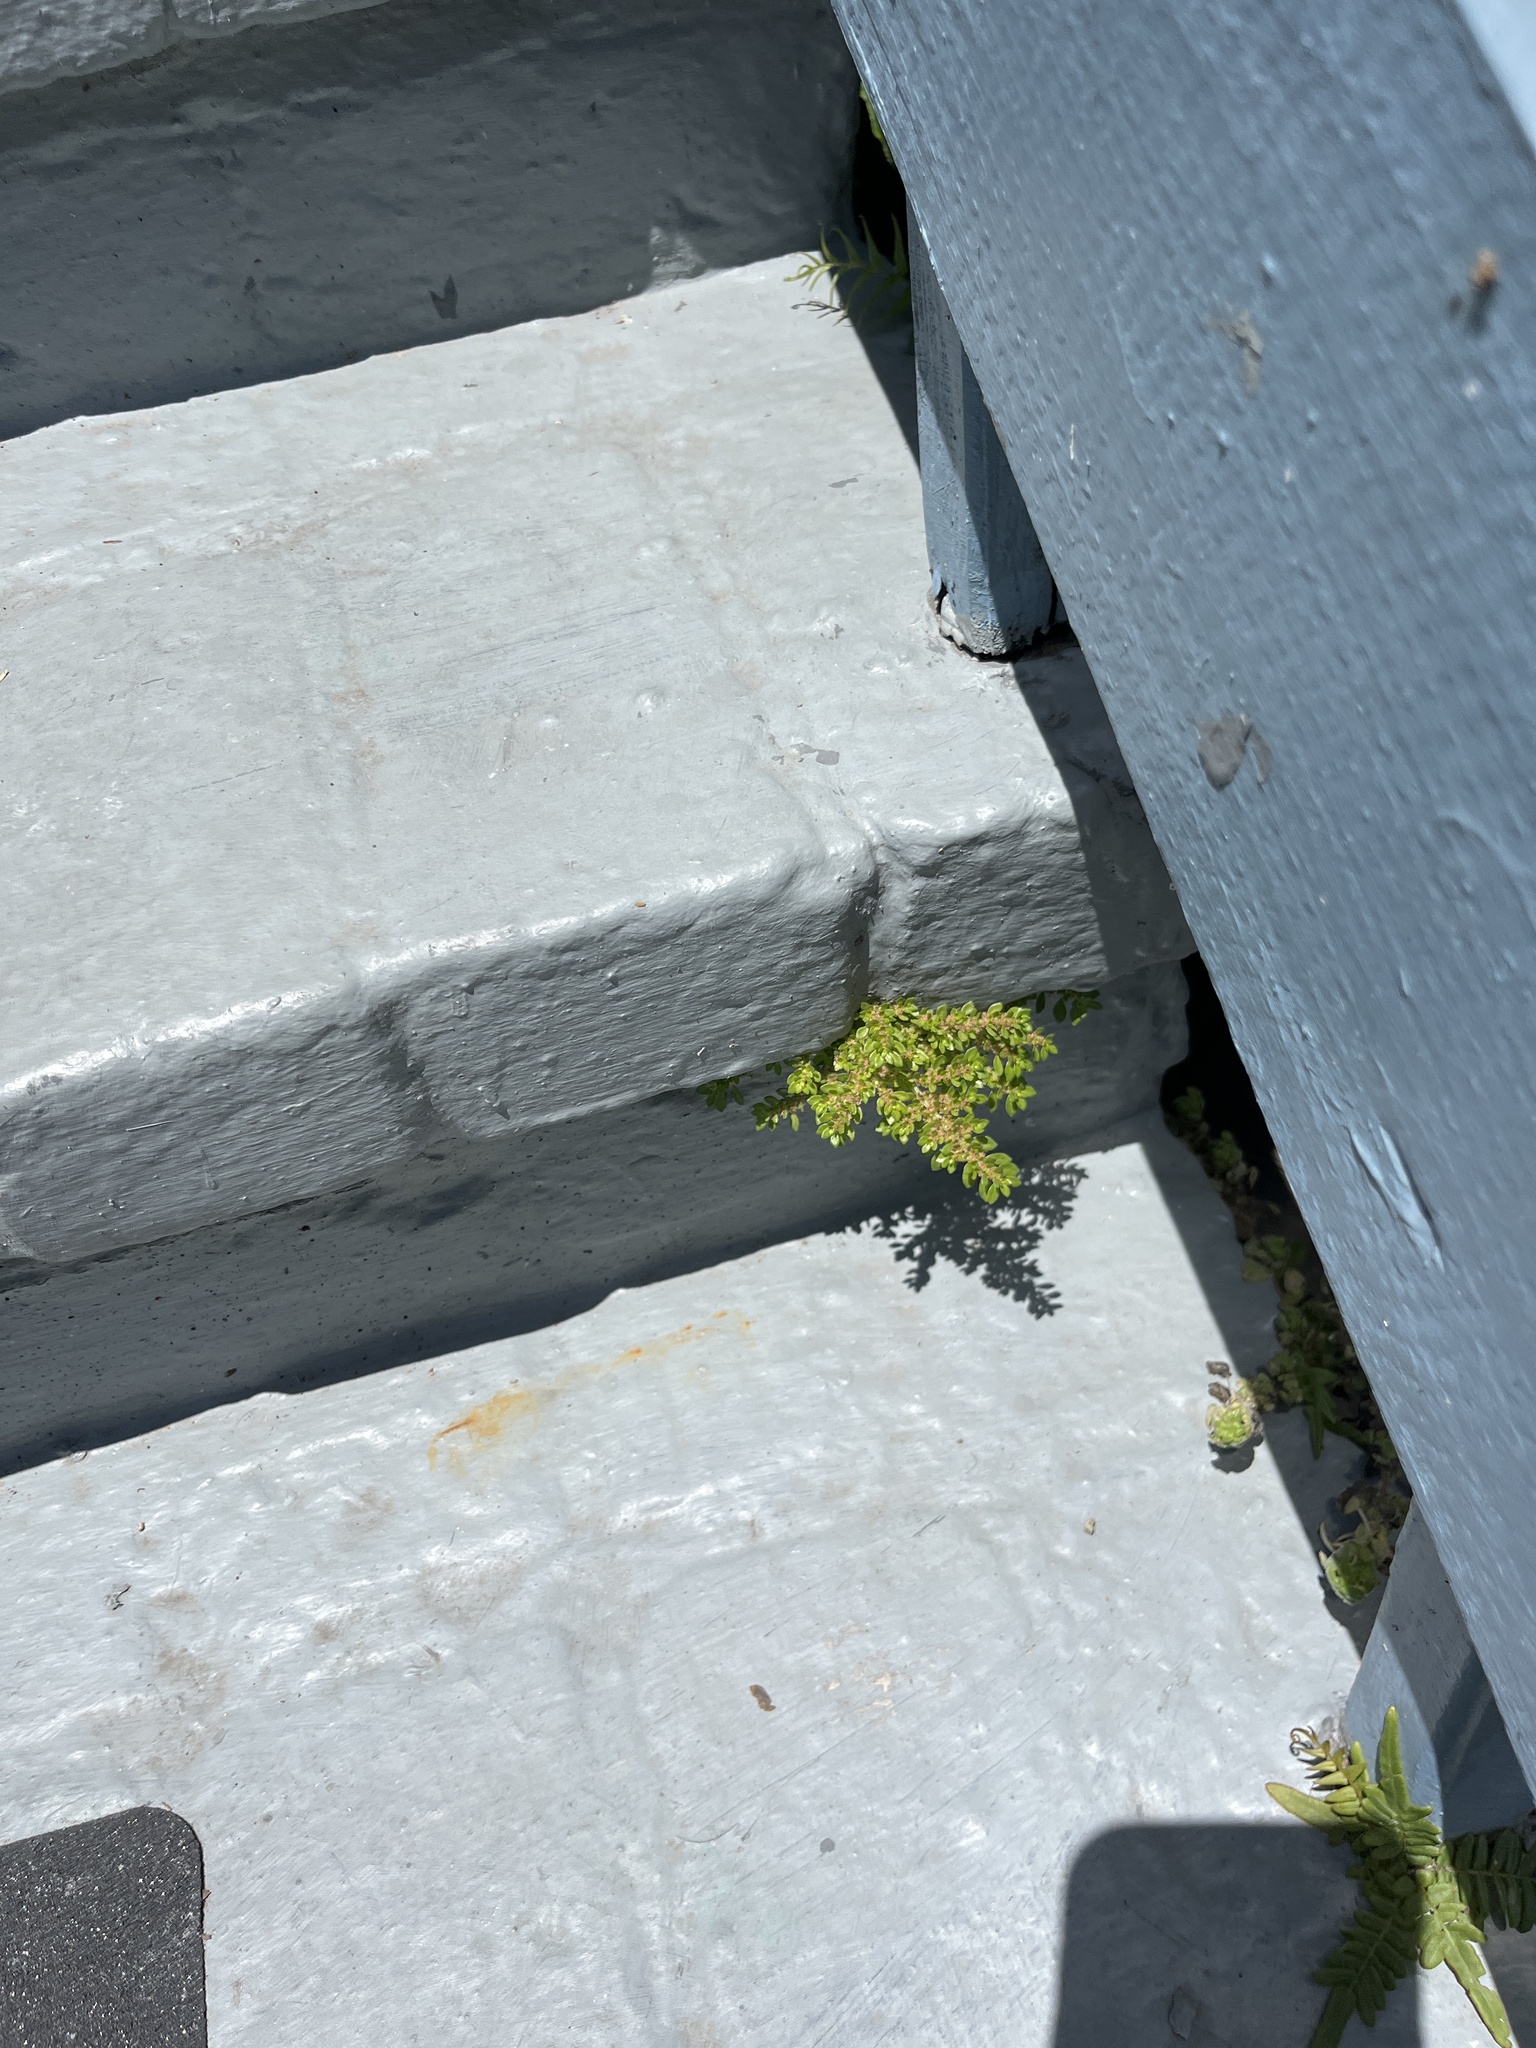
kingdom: Plantae
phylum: Tracheophyta
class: Magnoliopsida
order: Rosales
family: Urticaceae
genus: Pilea
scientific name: Pilea microphylla
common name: Artillery-plant
